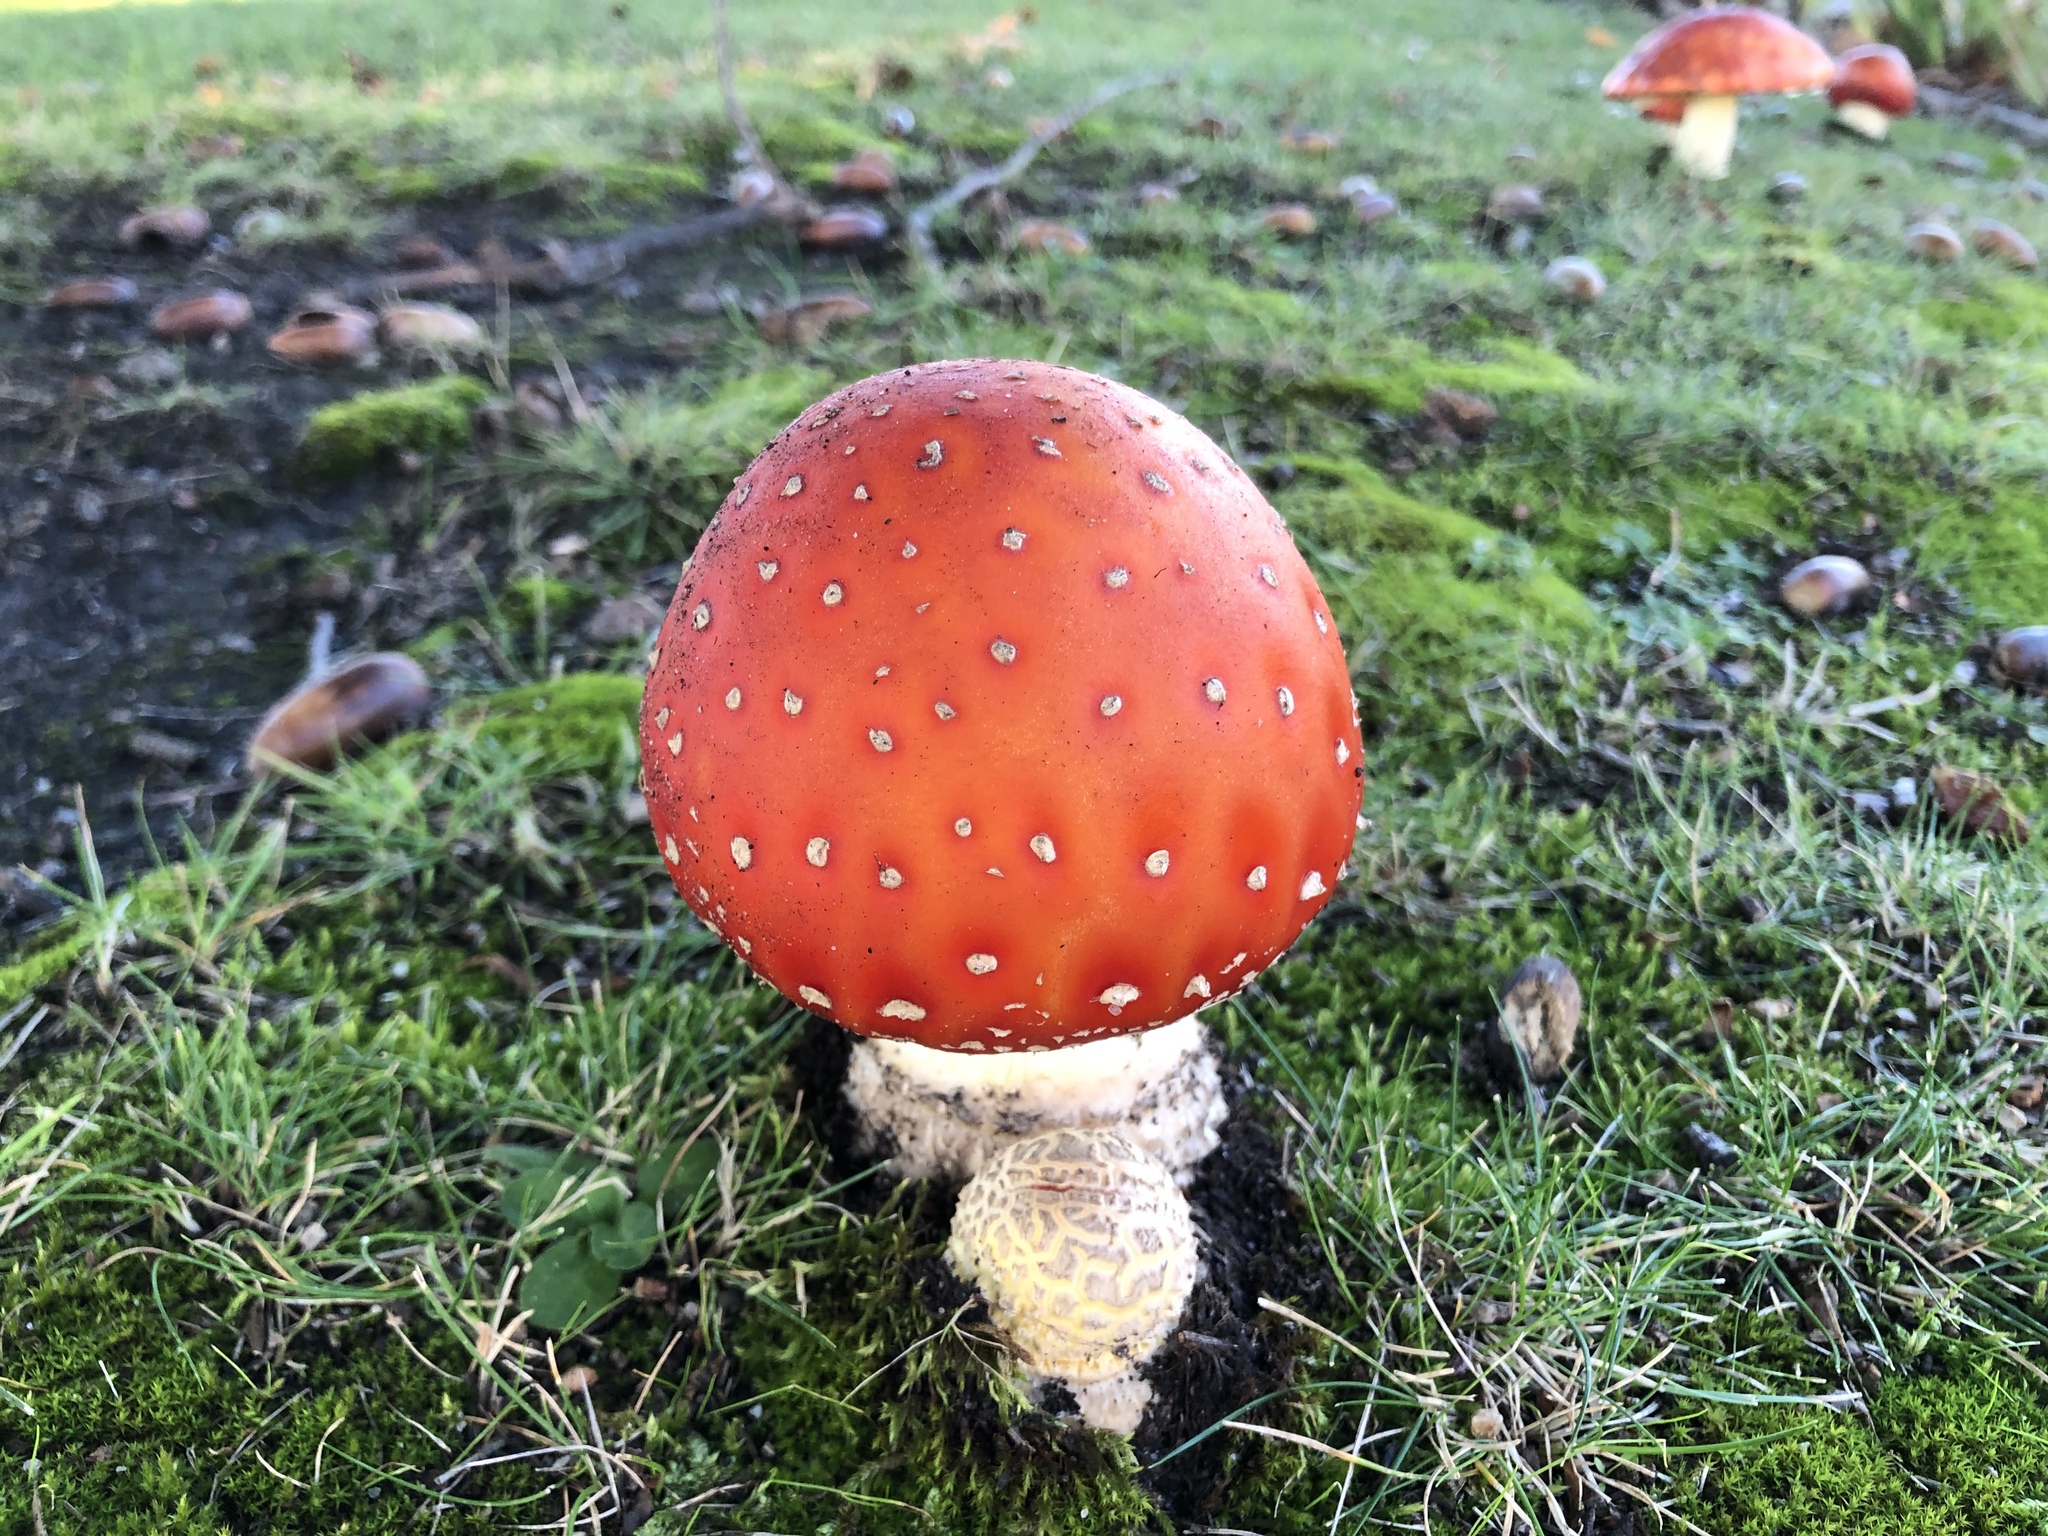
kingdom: Fungi
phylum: Basidiomycota
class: Agaricomycetes
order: Agaricales
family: Amanitaceae
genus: Amanita
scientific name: Amanita muscaria
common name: Fly agaric
